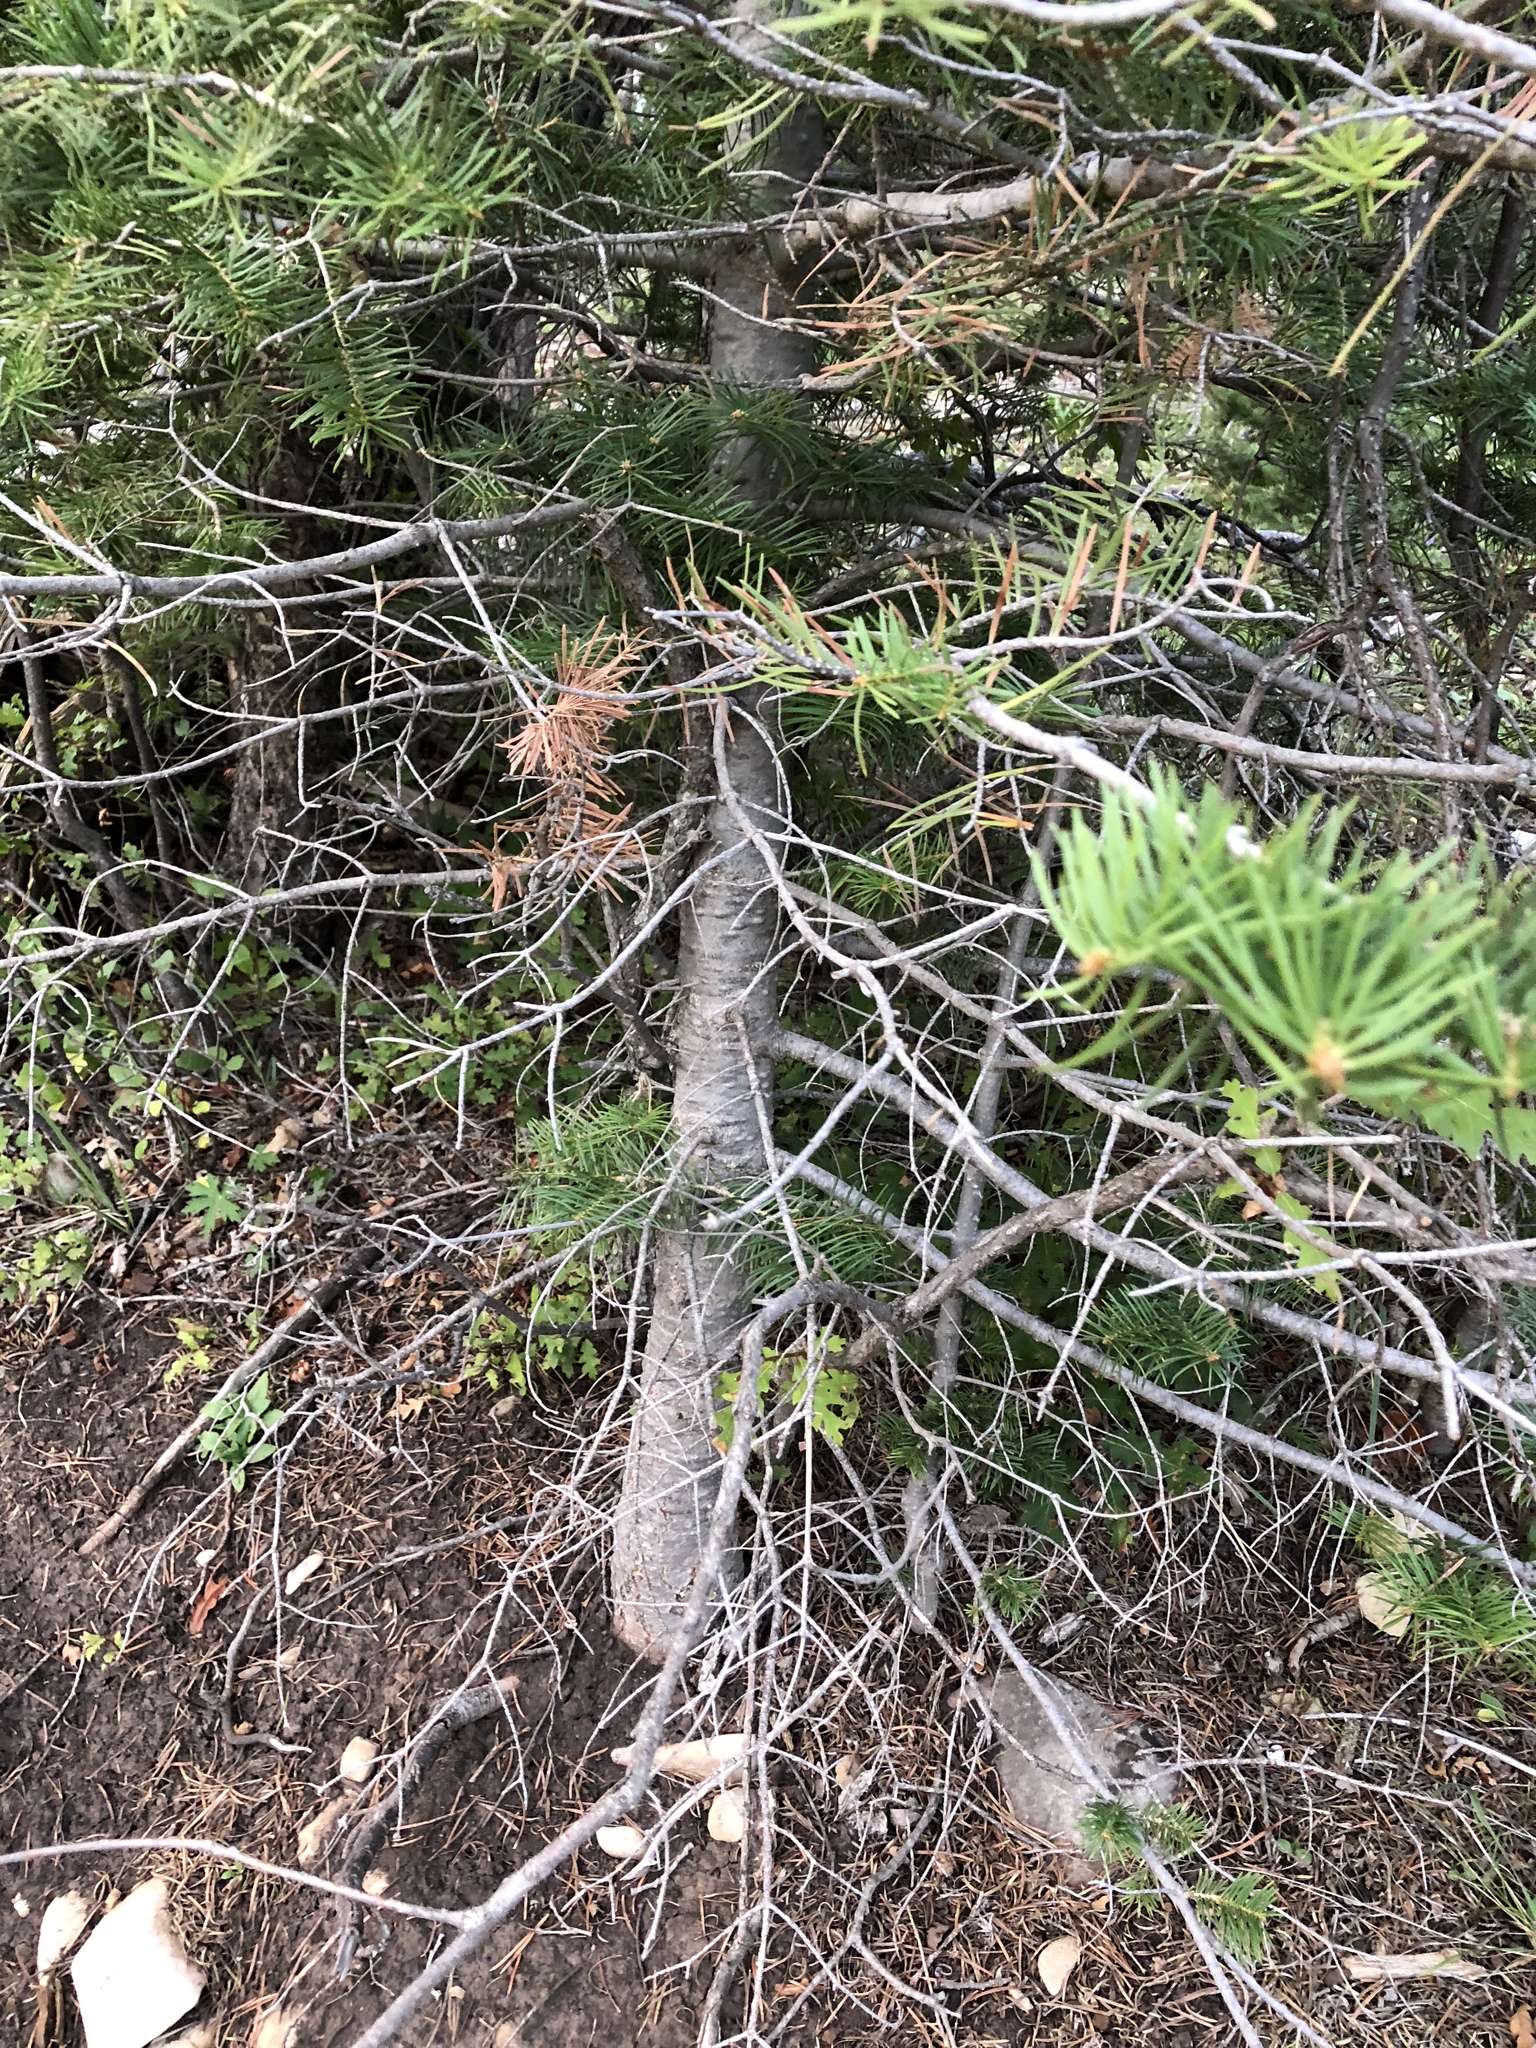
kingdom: Plantae
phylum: Tracheophyta
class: Pinopsida
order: Pinales
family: Pinaceae
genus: Abies
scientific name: Abies concolor
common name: Colorado fir
